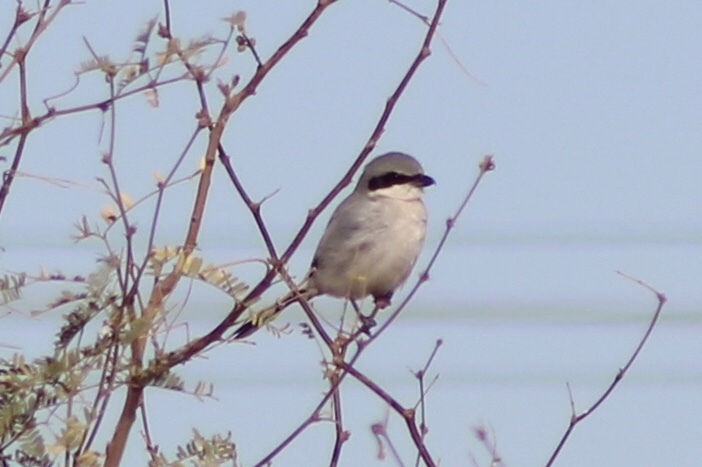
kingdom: Animalia
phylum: Chordata
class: Aves
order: Passeriformes
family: Laniidae
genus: Lanius
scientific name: Lanius ludovicianus
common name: Loggerhead shrike
